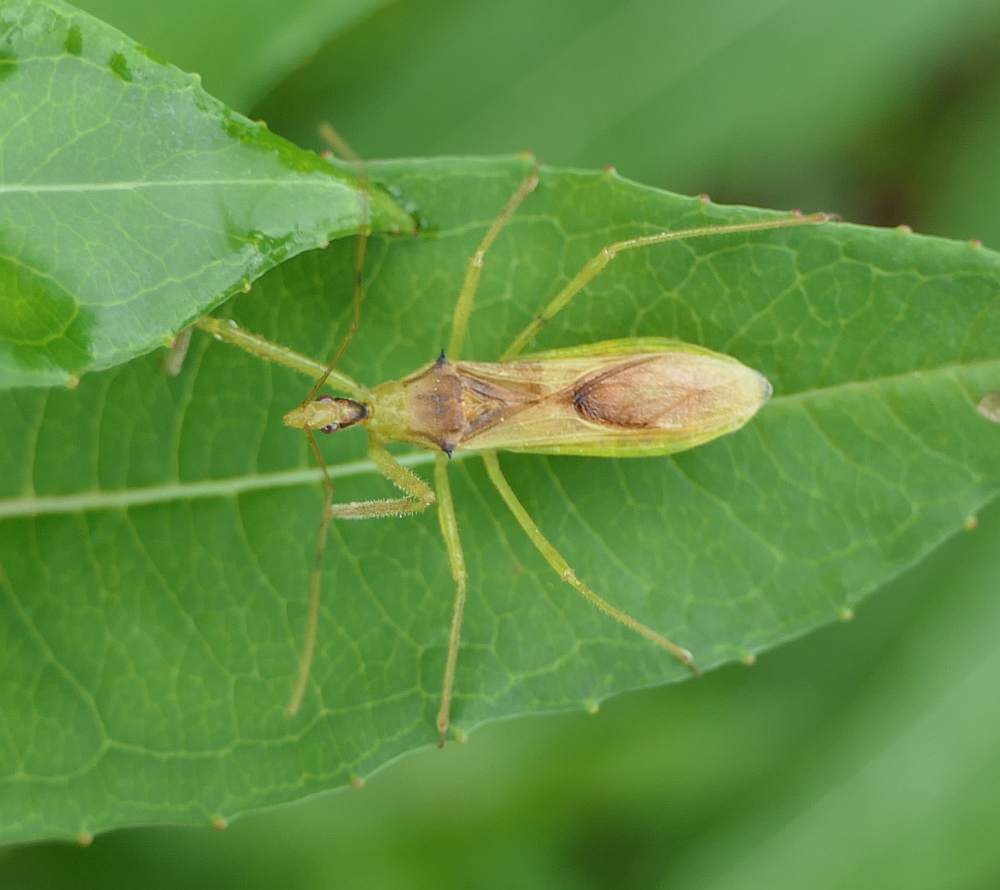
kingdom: Animalia
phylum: Arthropoda
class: Insecta
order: Hemiptera
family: Reduviidae
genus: Zelus
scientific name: Zelus luridus
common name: Pale green assassin bug
